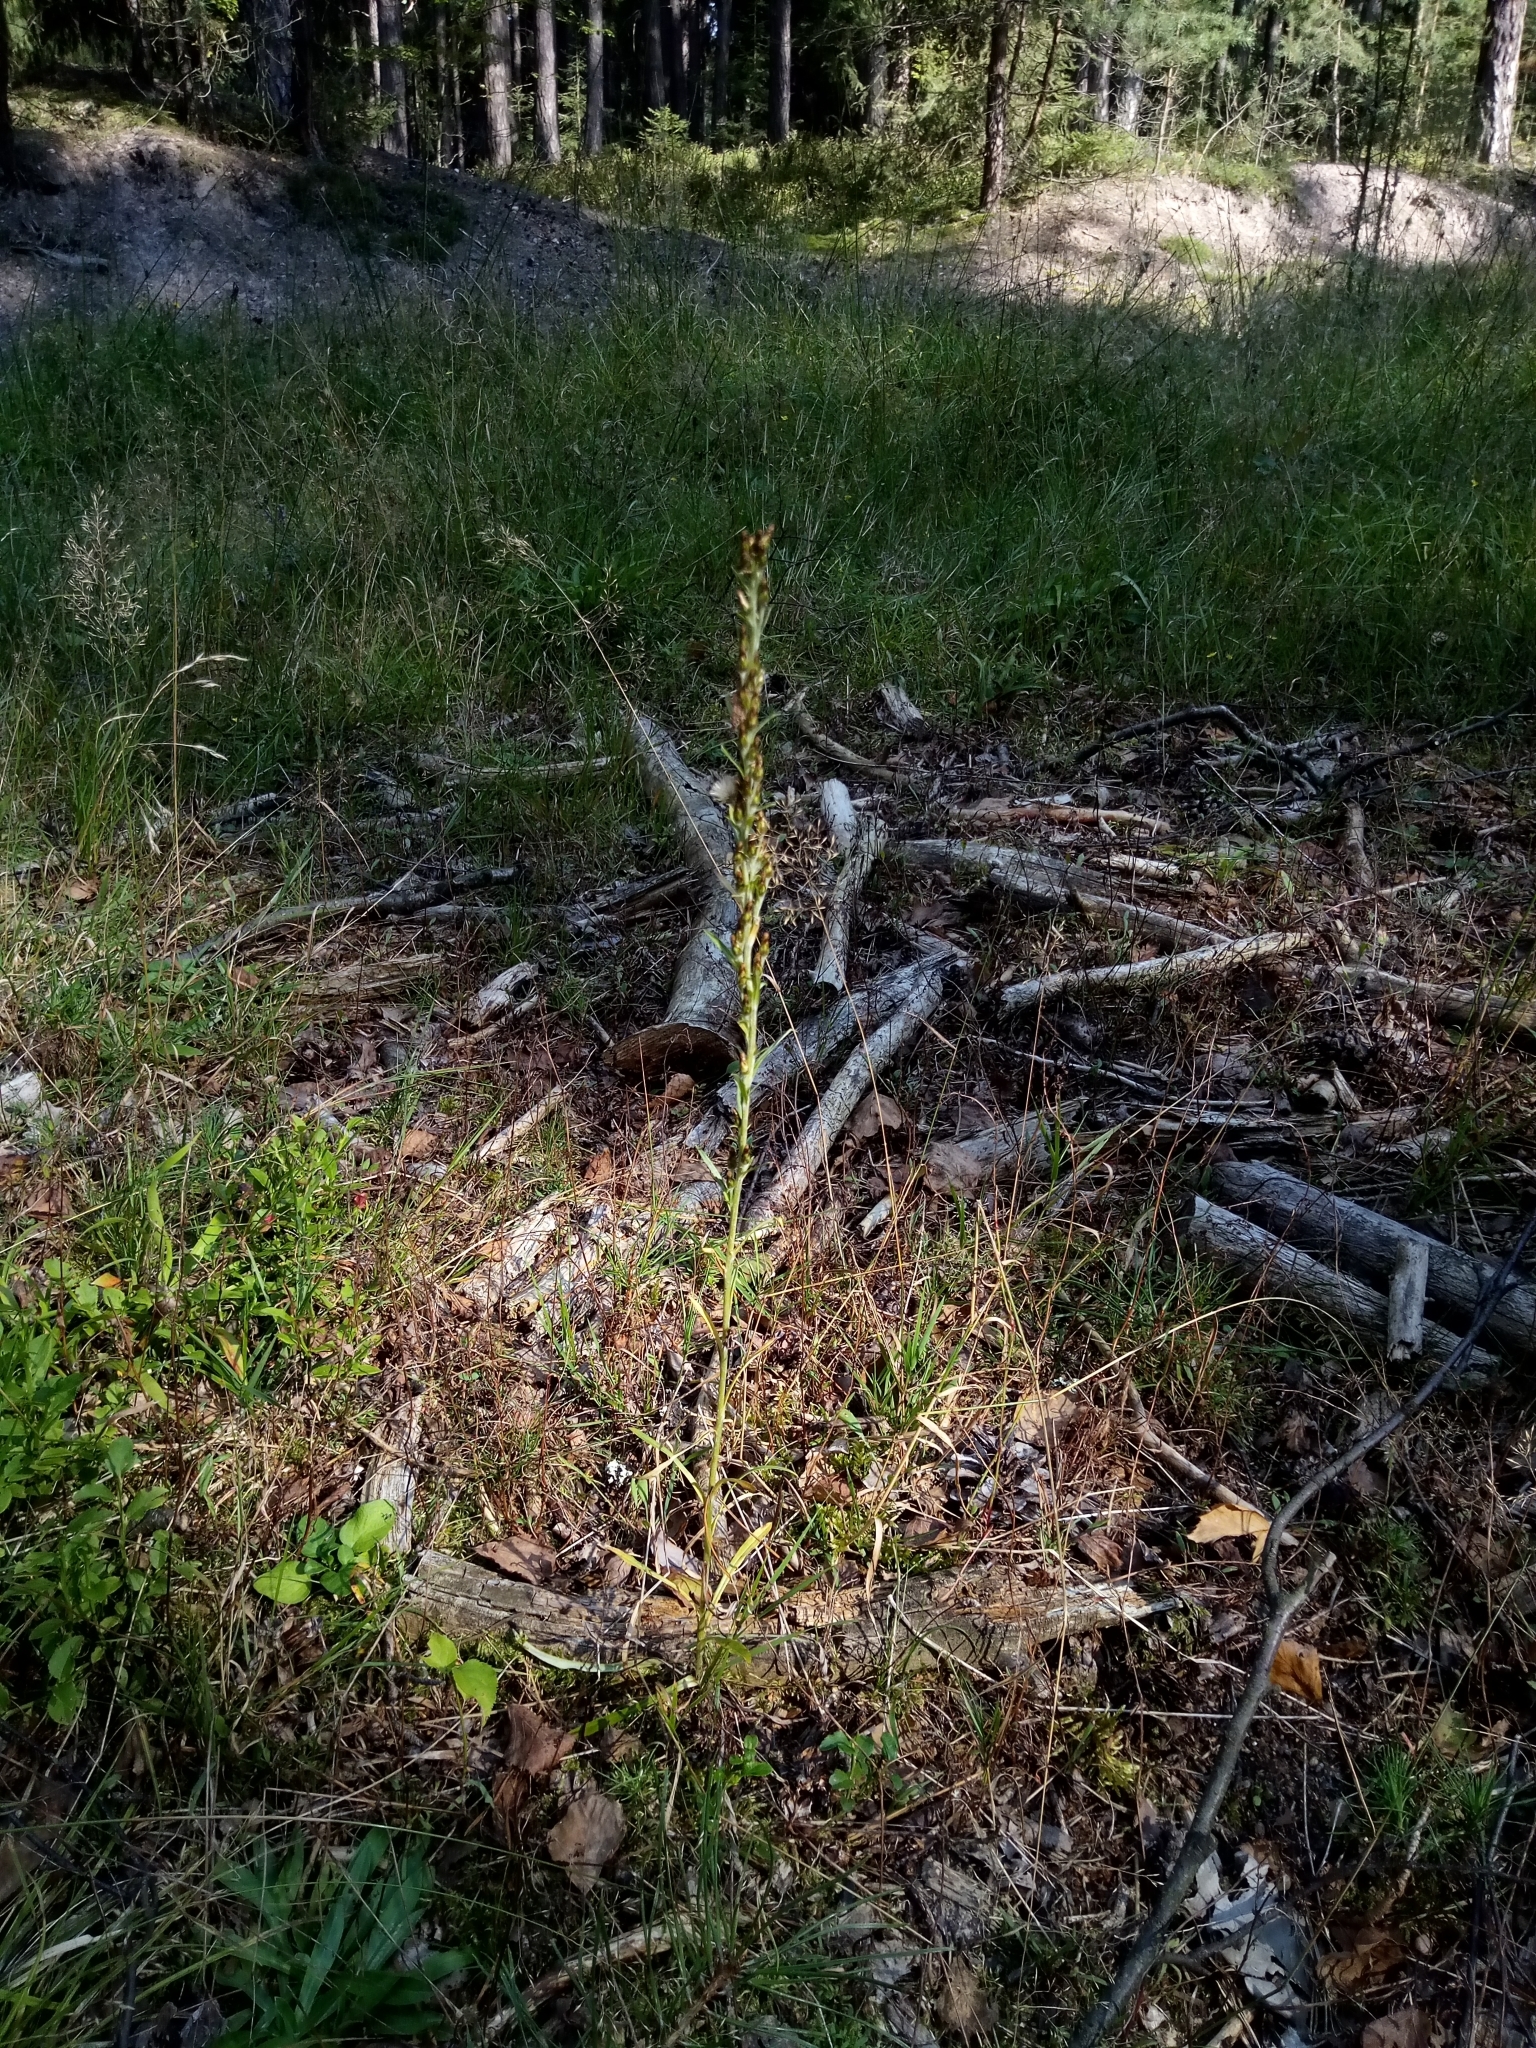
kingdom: Plantae
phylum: Tracheophyta
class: Magnoliopsida
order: Asterales
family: Asteraceae
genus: Omalotheca
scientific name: Omalotheca sylvatica
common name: Heath cudweed
